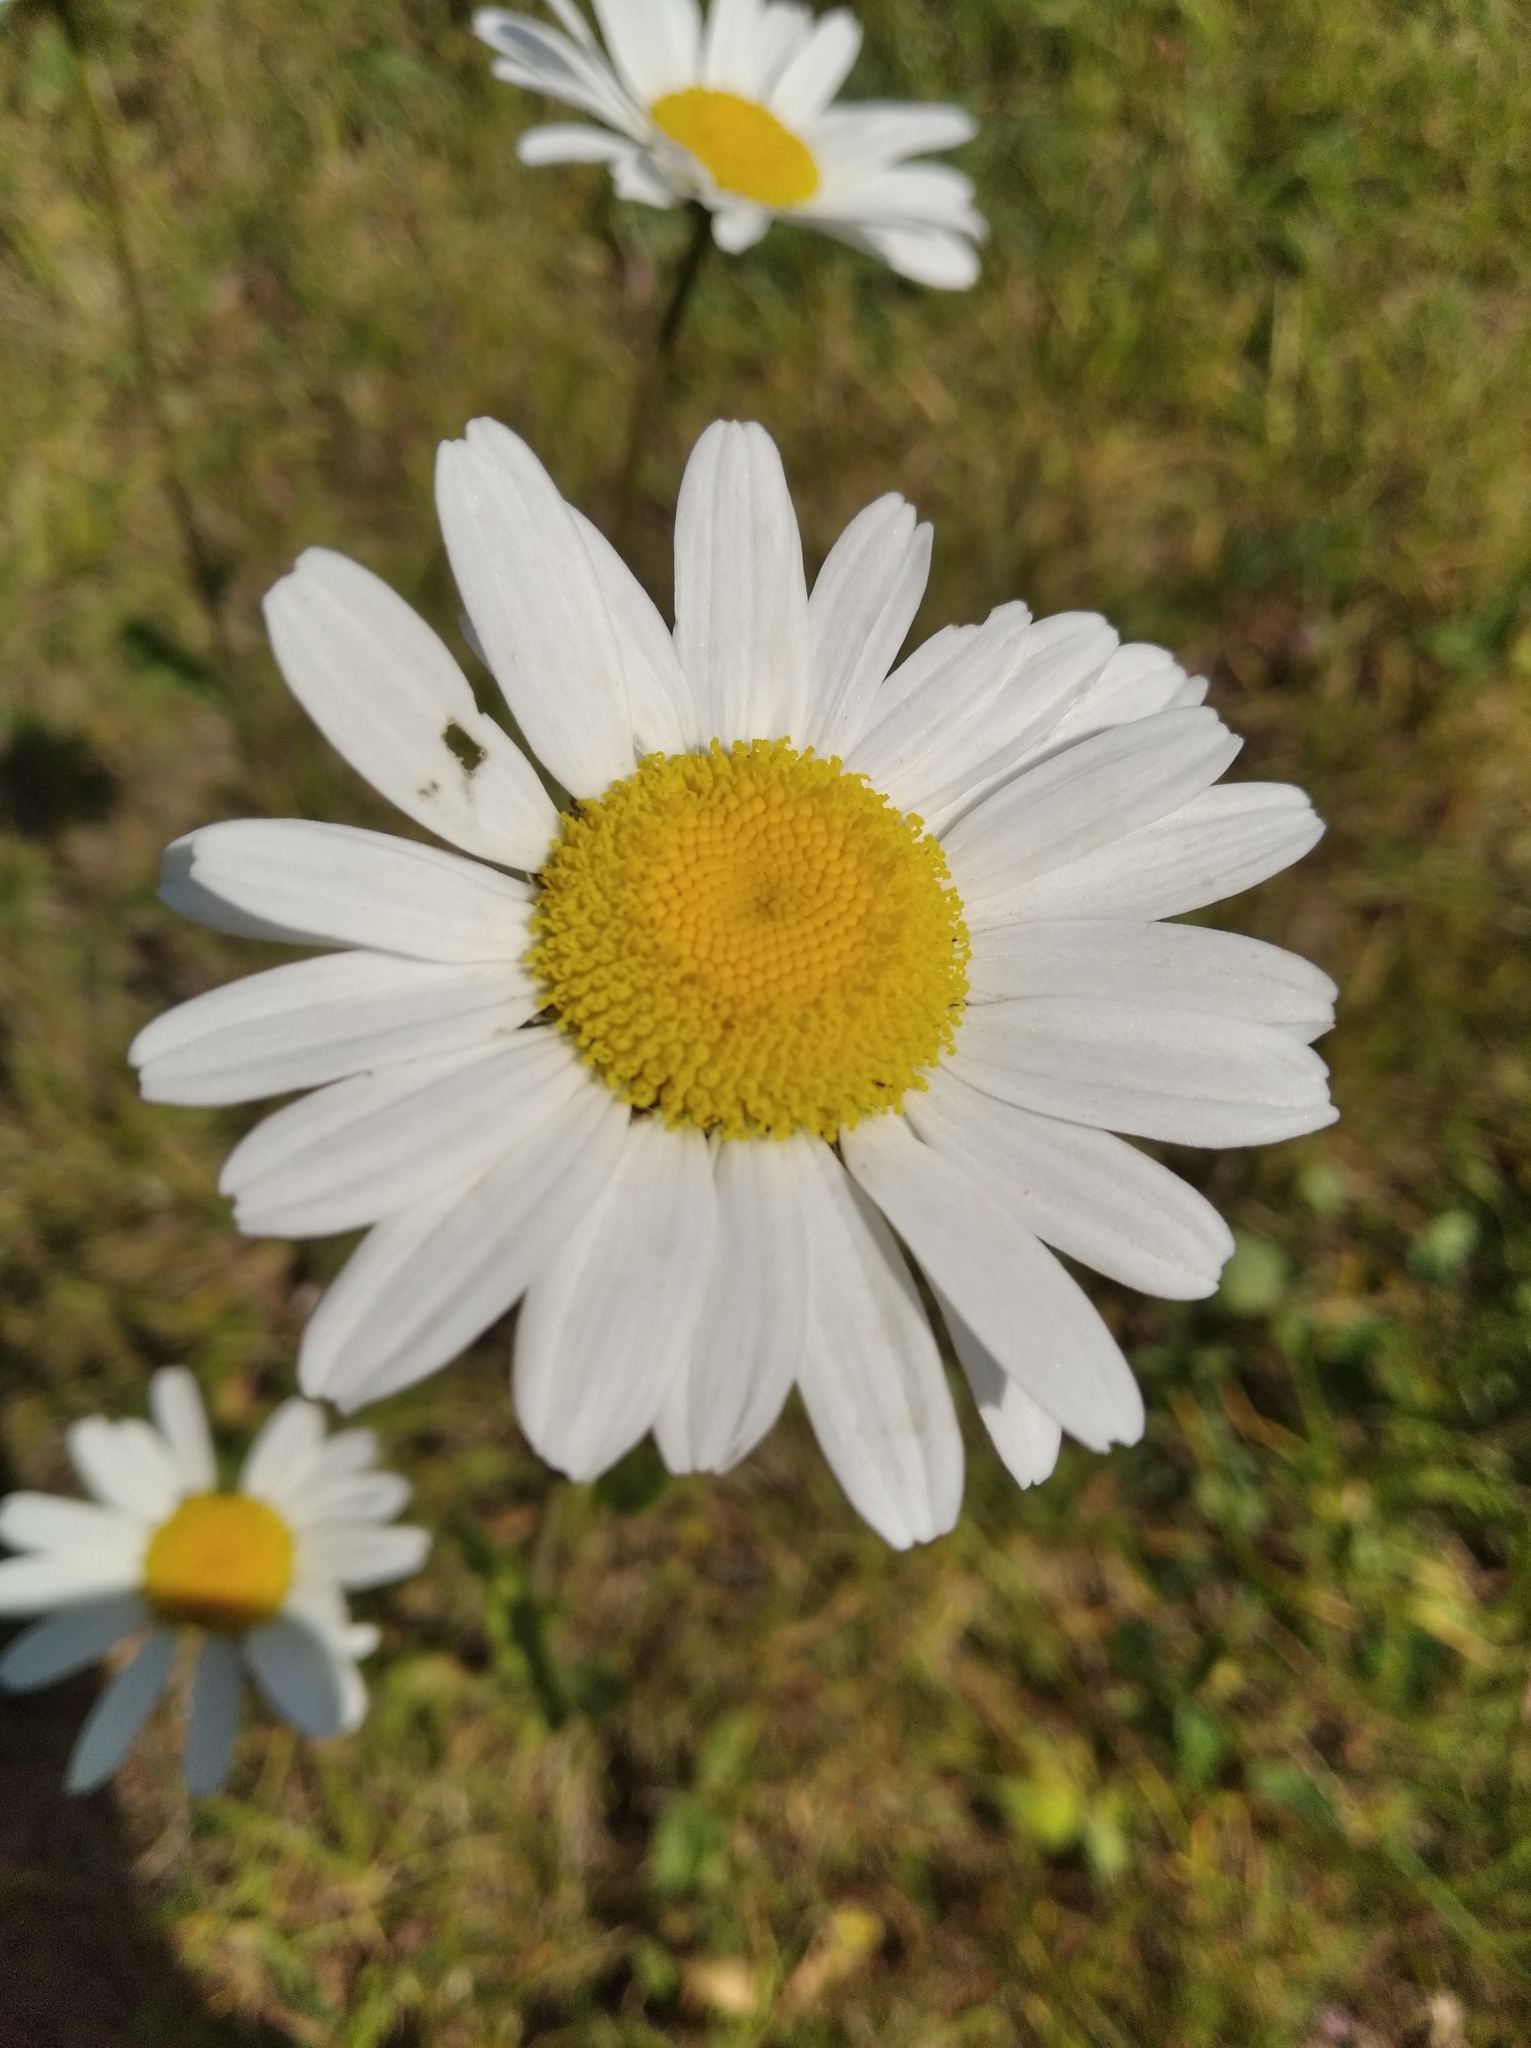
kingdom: Plantae
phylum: Tracheophyta
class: Magnoliopsida
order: Asterales
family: Asteraceae
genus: Leucanthemum
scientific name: Leucanthemum vulgare
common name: Oxeye daisy
